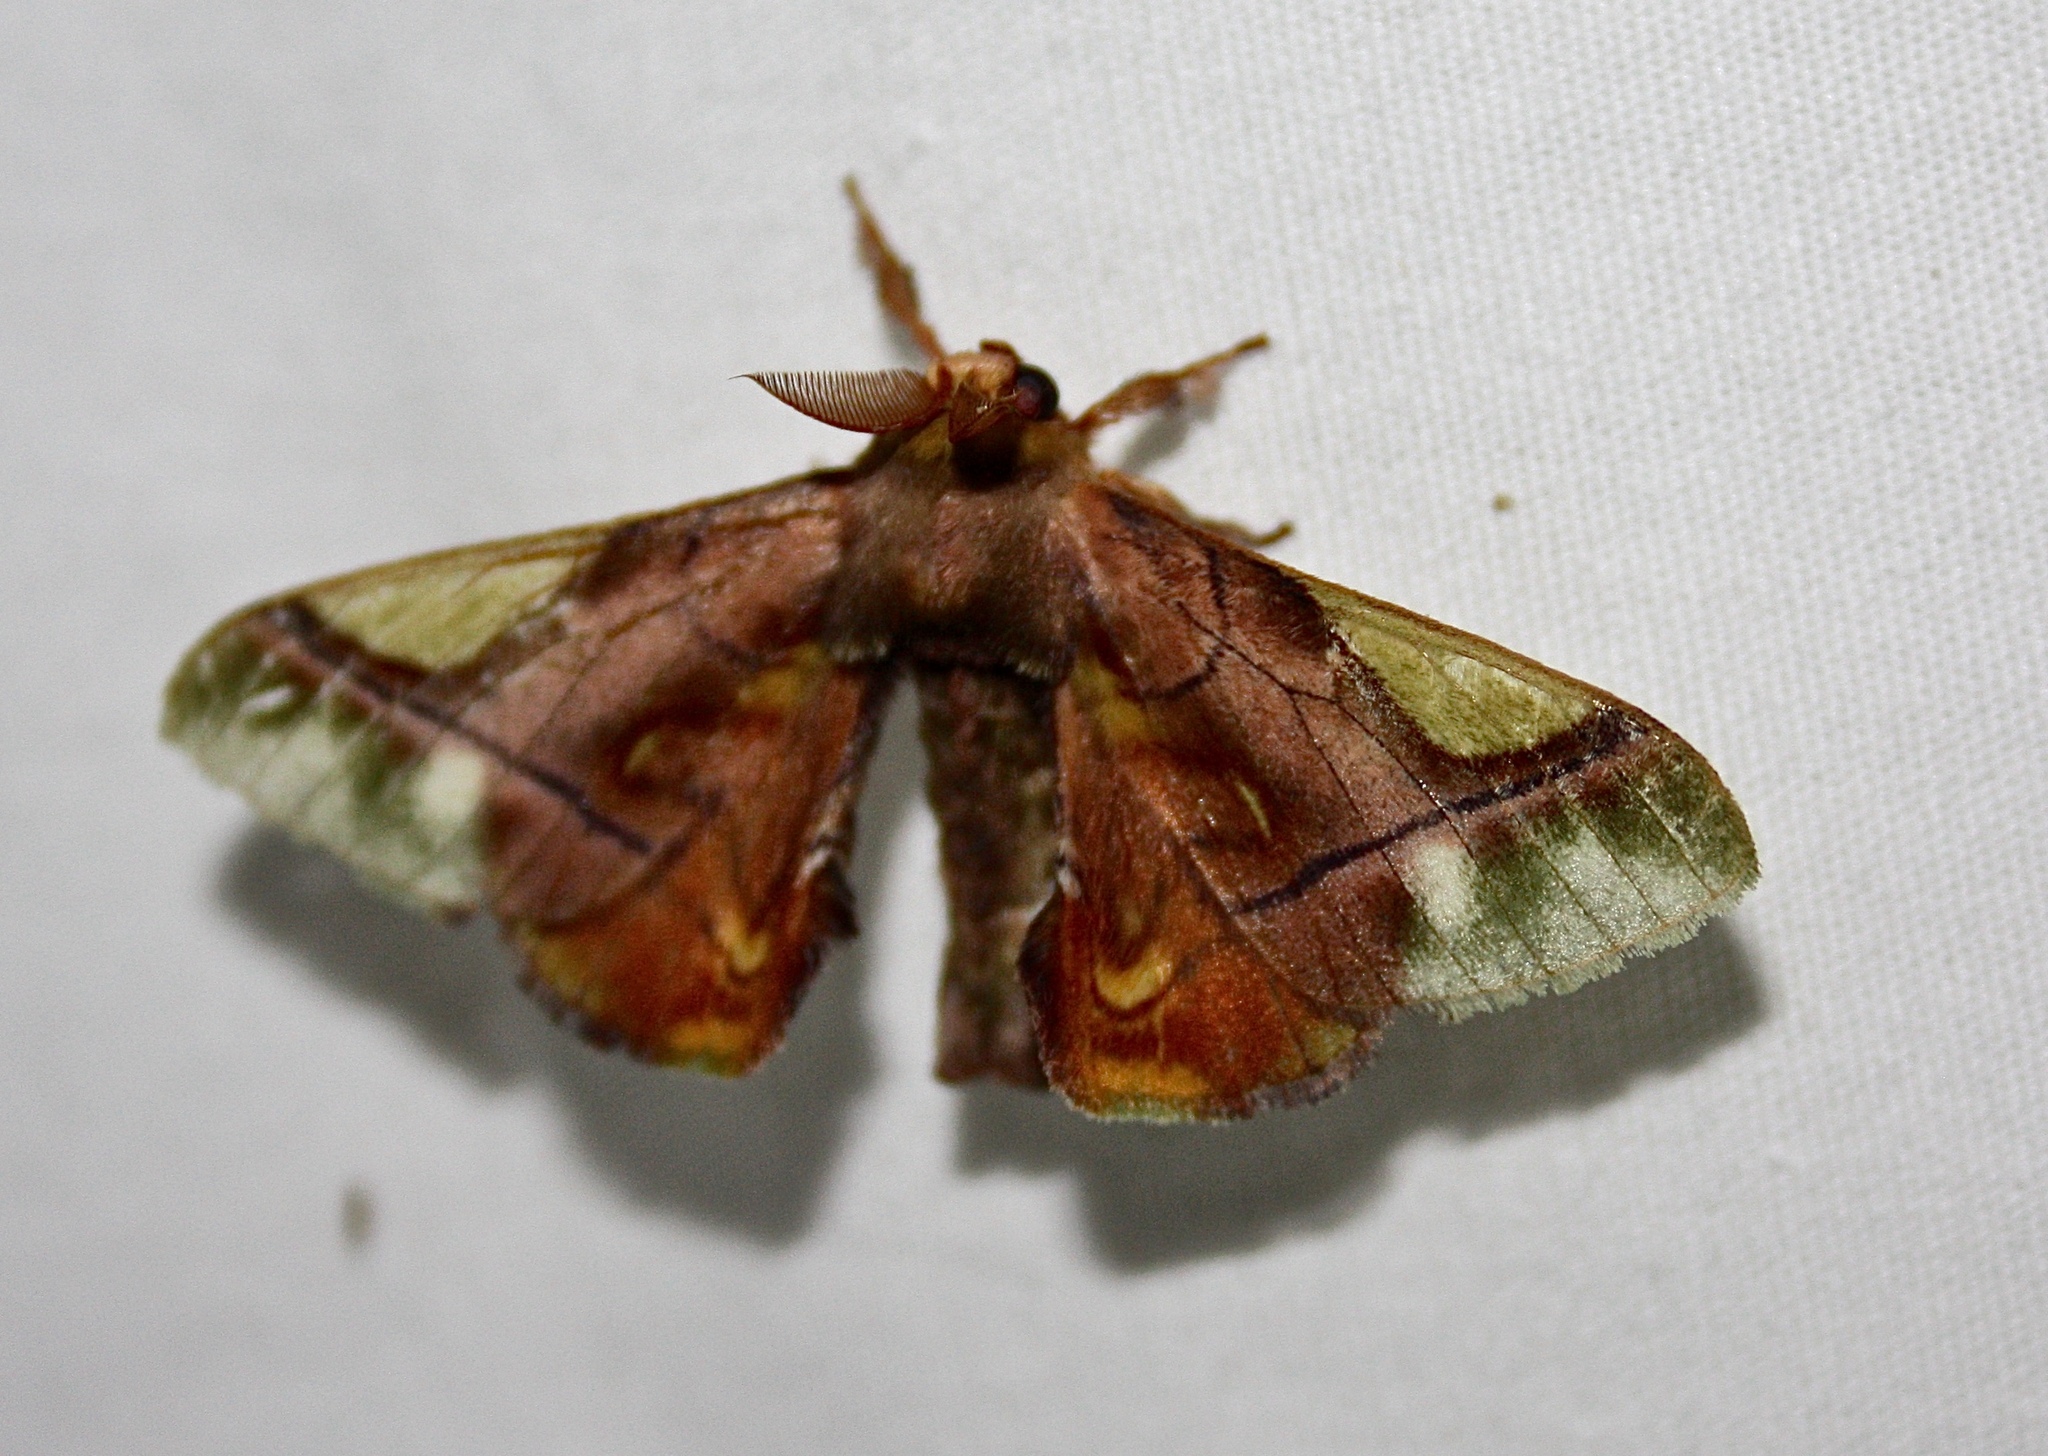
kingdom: Animalia
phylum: Arthropoda
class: Insecta
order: Lepidoptera
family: Bombycidae
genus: Epia
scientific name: Epia muscosa
